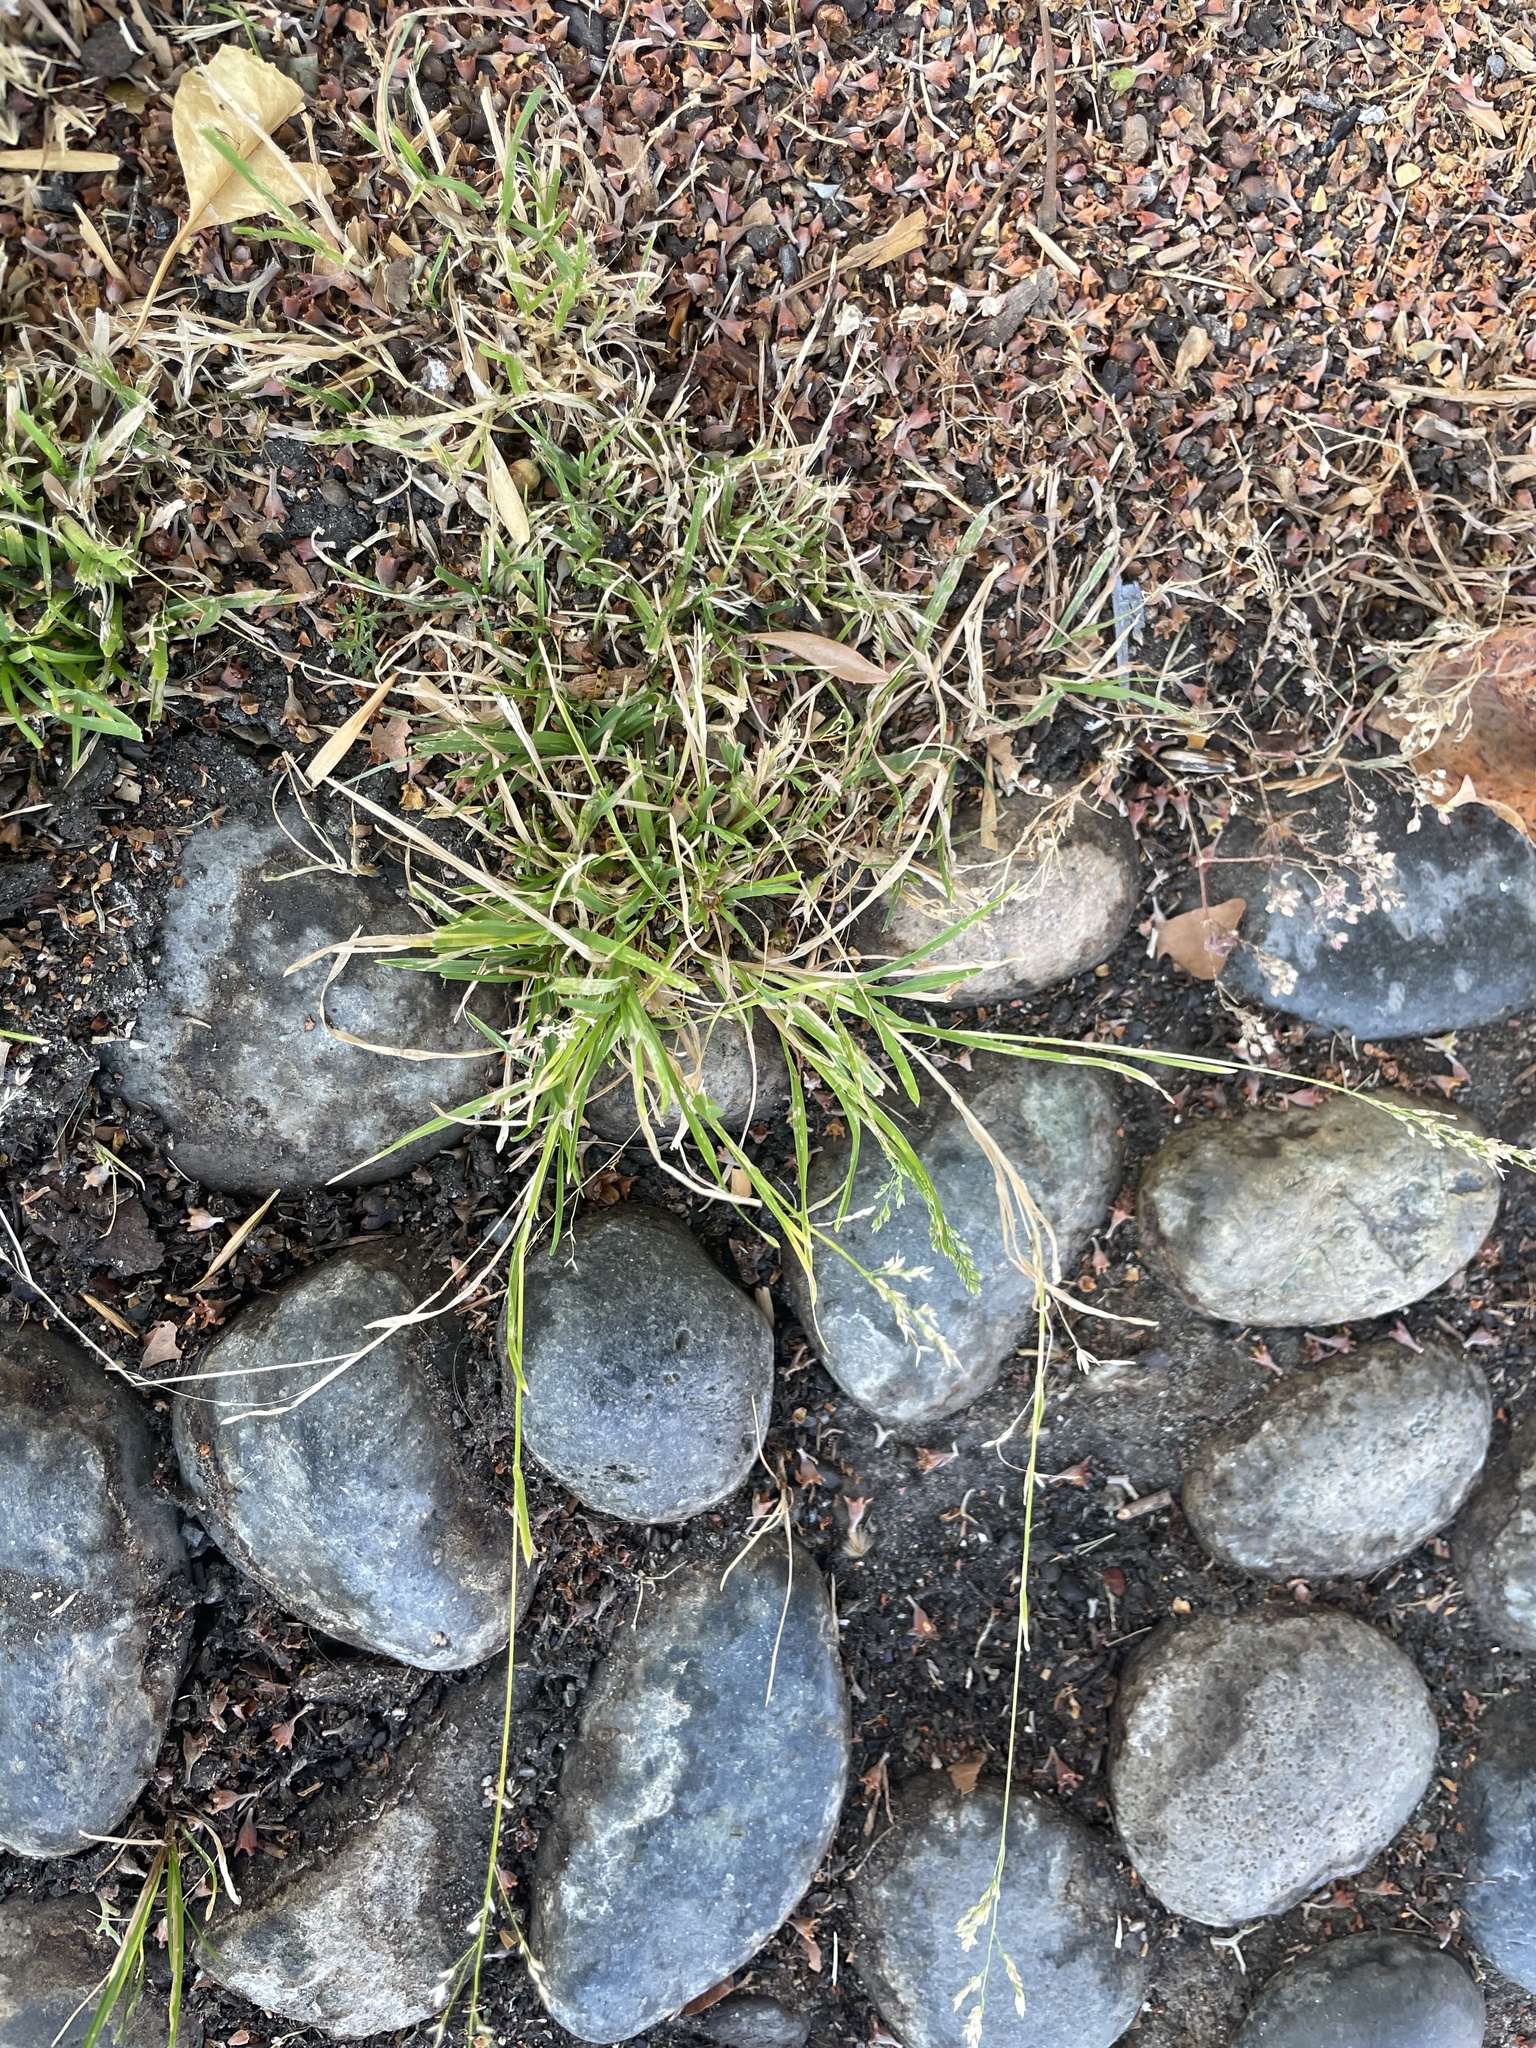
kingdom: Plantae
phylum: Tracheophyta
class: Liliopsida
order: Poales
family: Poaceae
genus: Poa
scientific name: Poa annua
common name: Annual bluegrass
